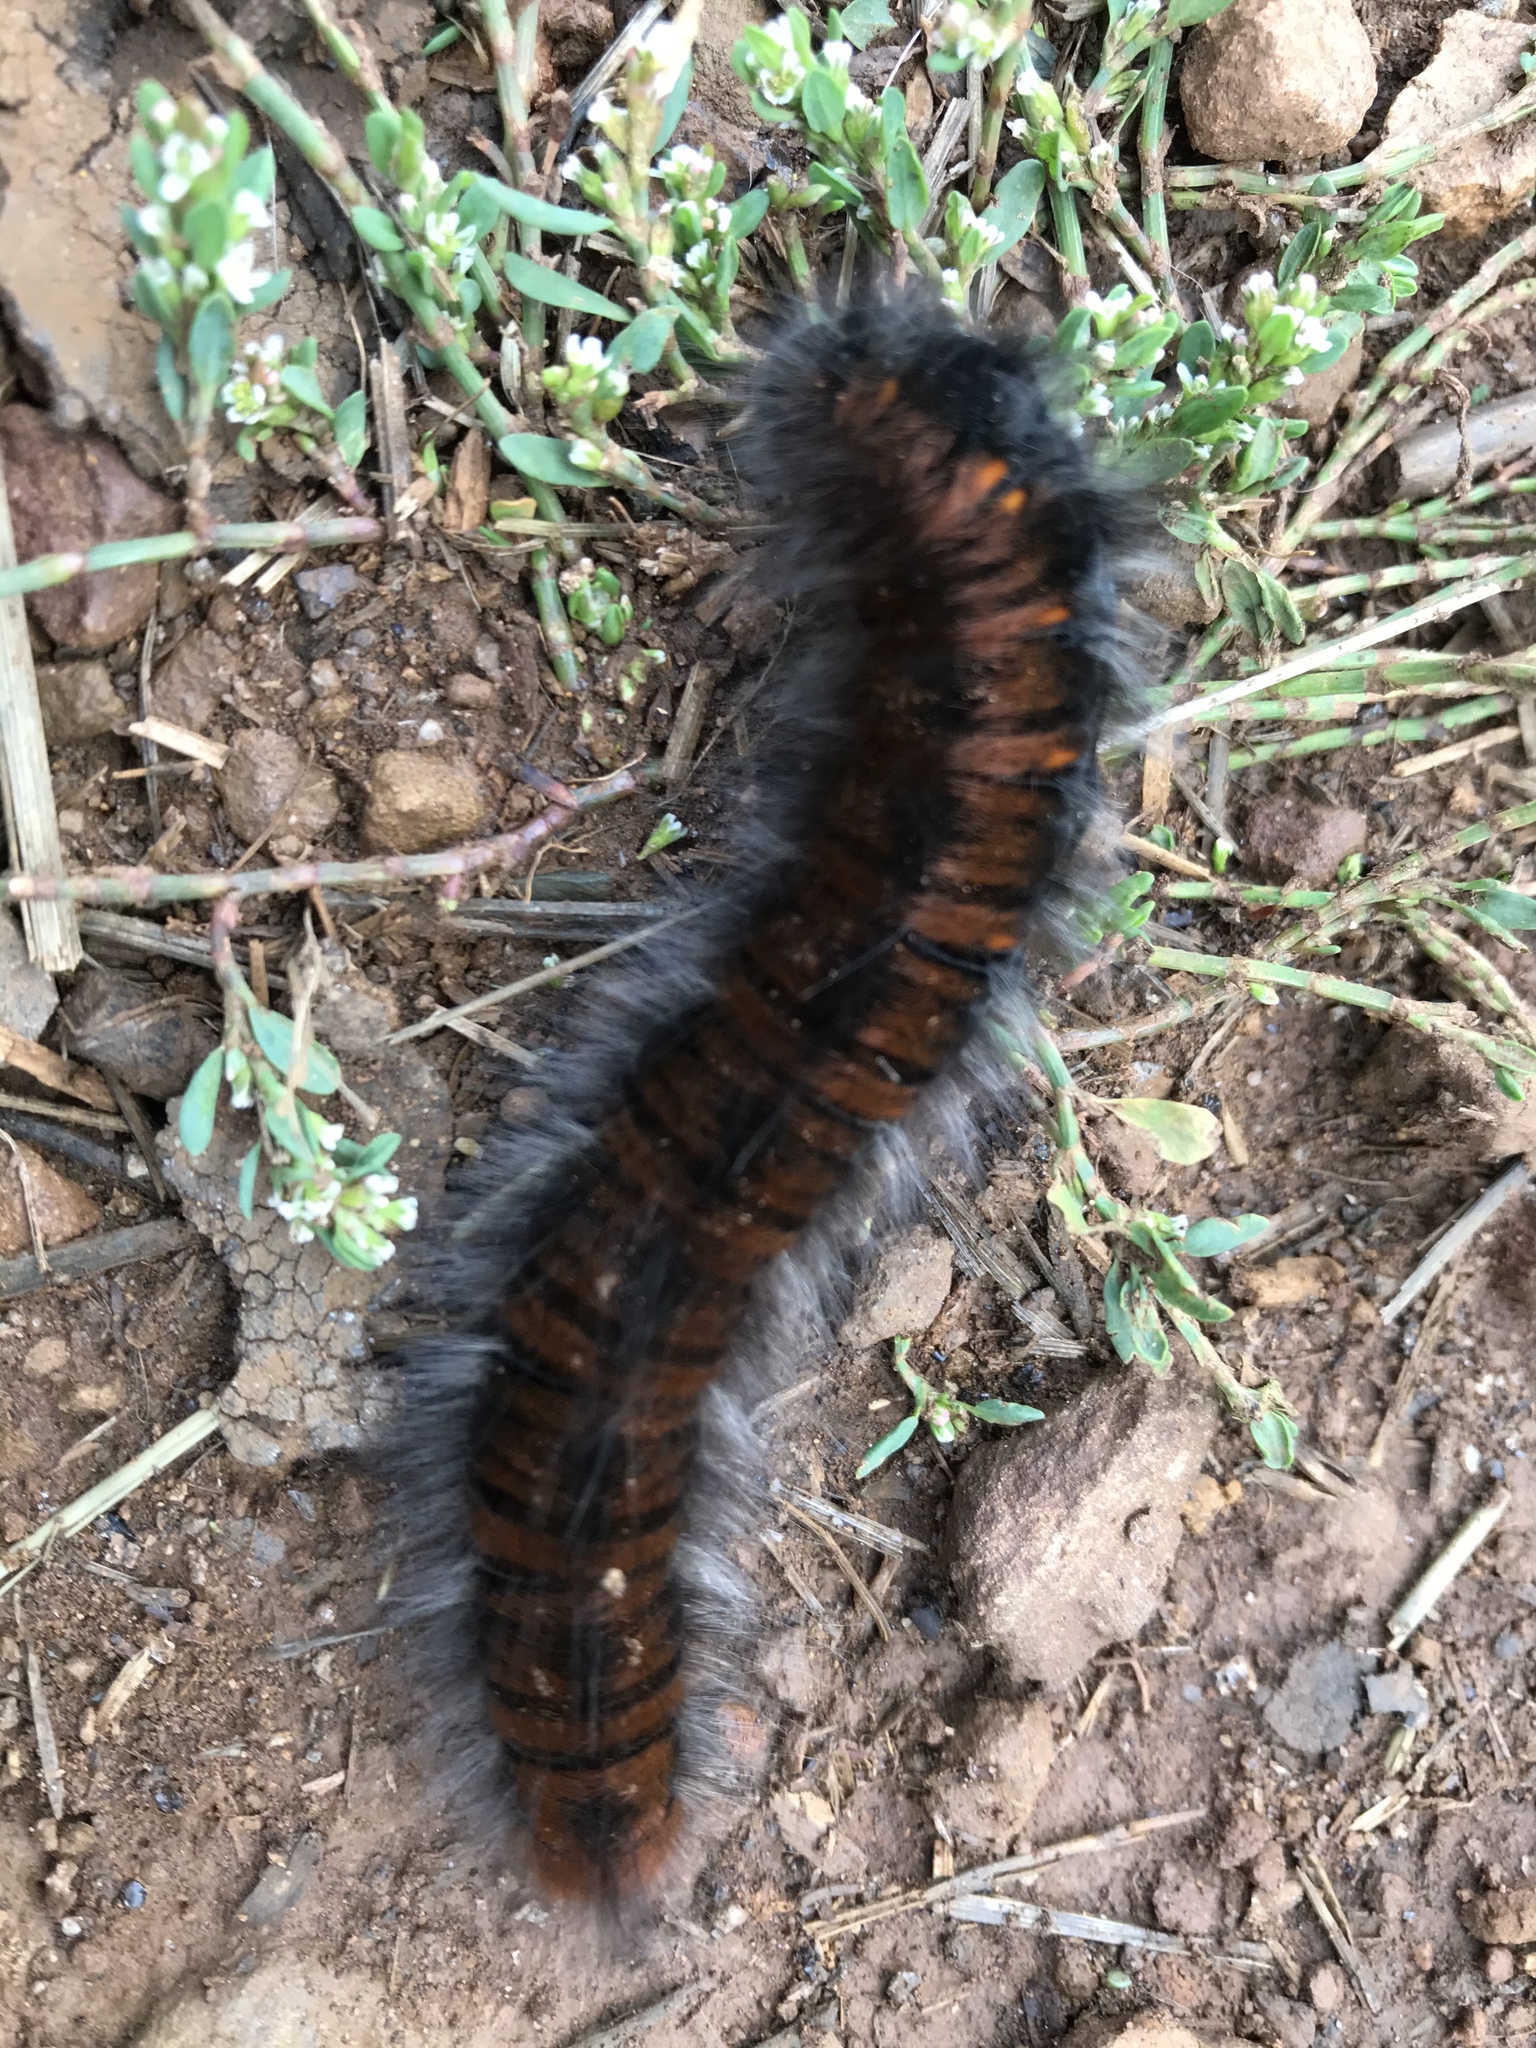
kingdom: Animalia
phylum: Arthropoda
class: Insecta
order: Lepidoptera
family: Lasiocampidae
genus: Macrothylacia
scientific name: Macrothylacia rubi
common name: Fox moth
